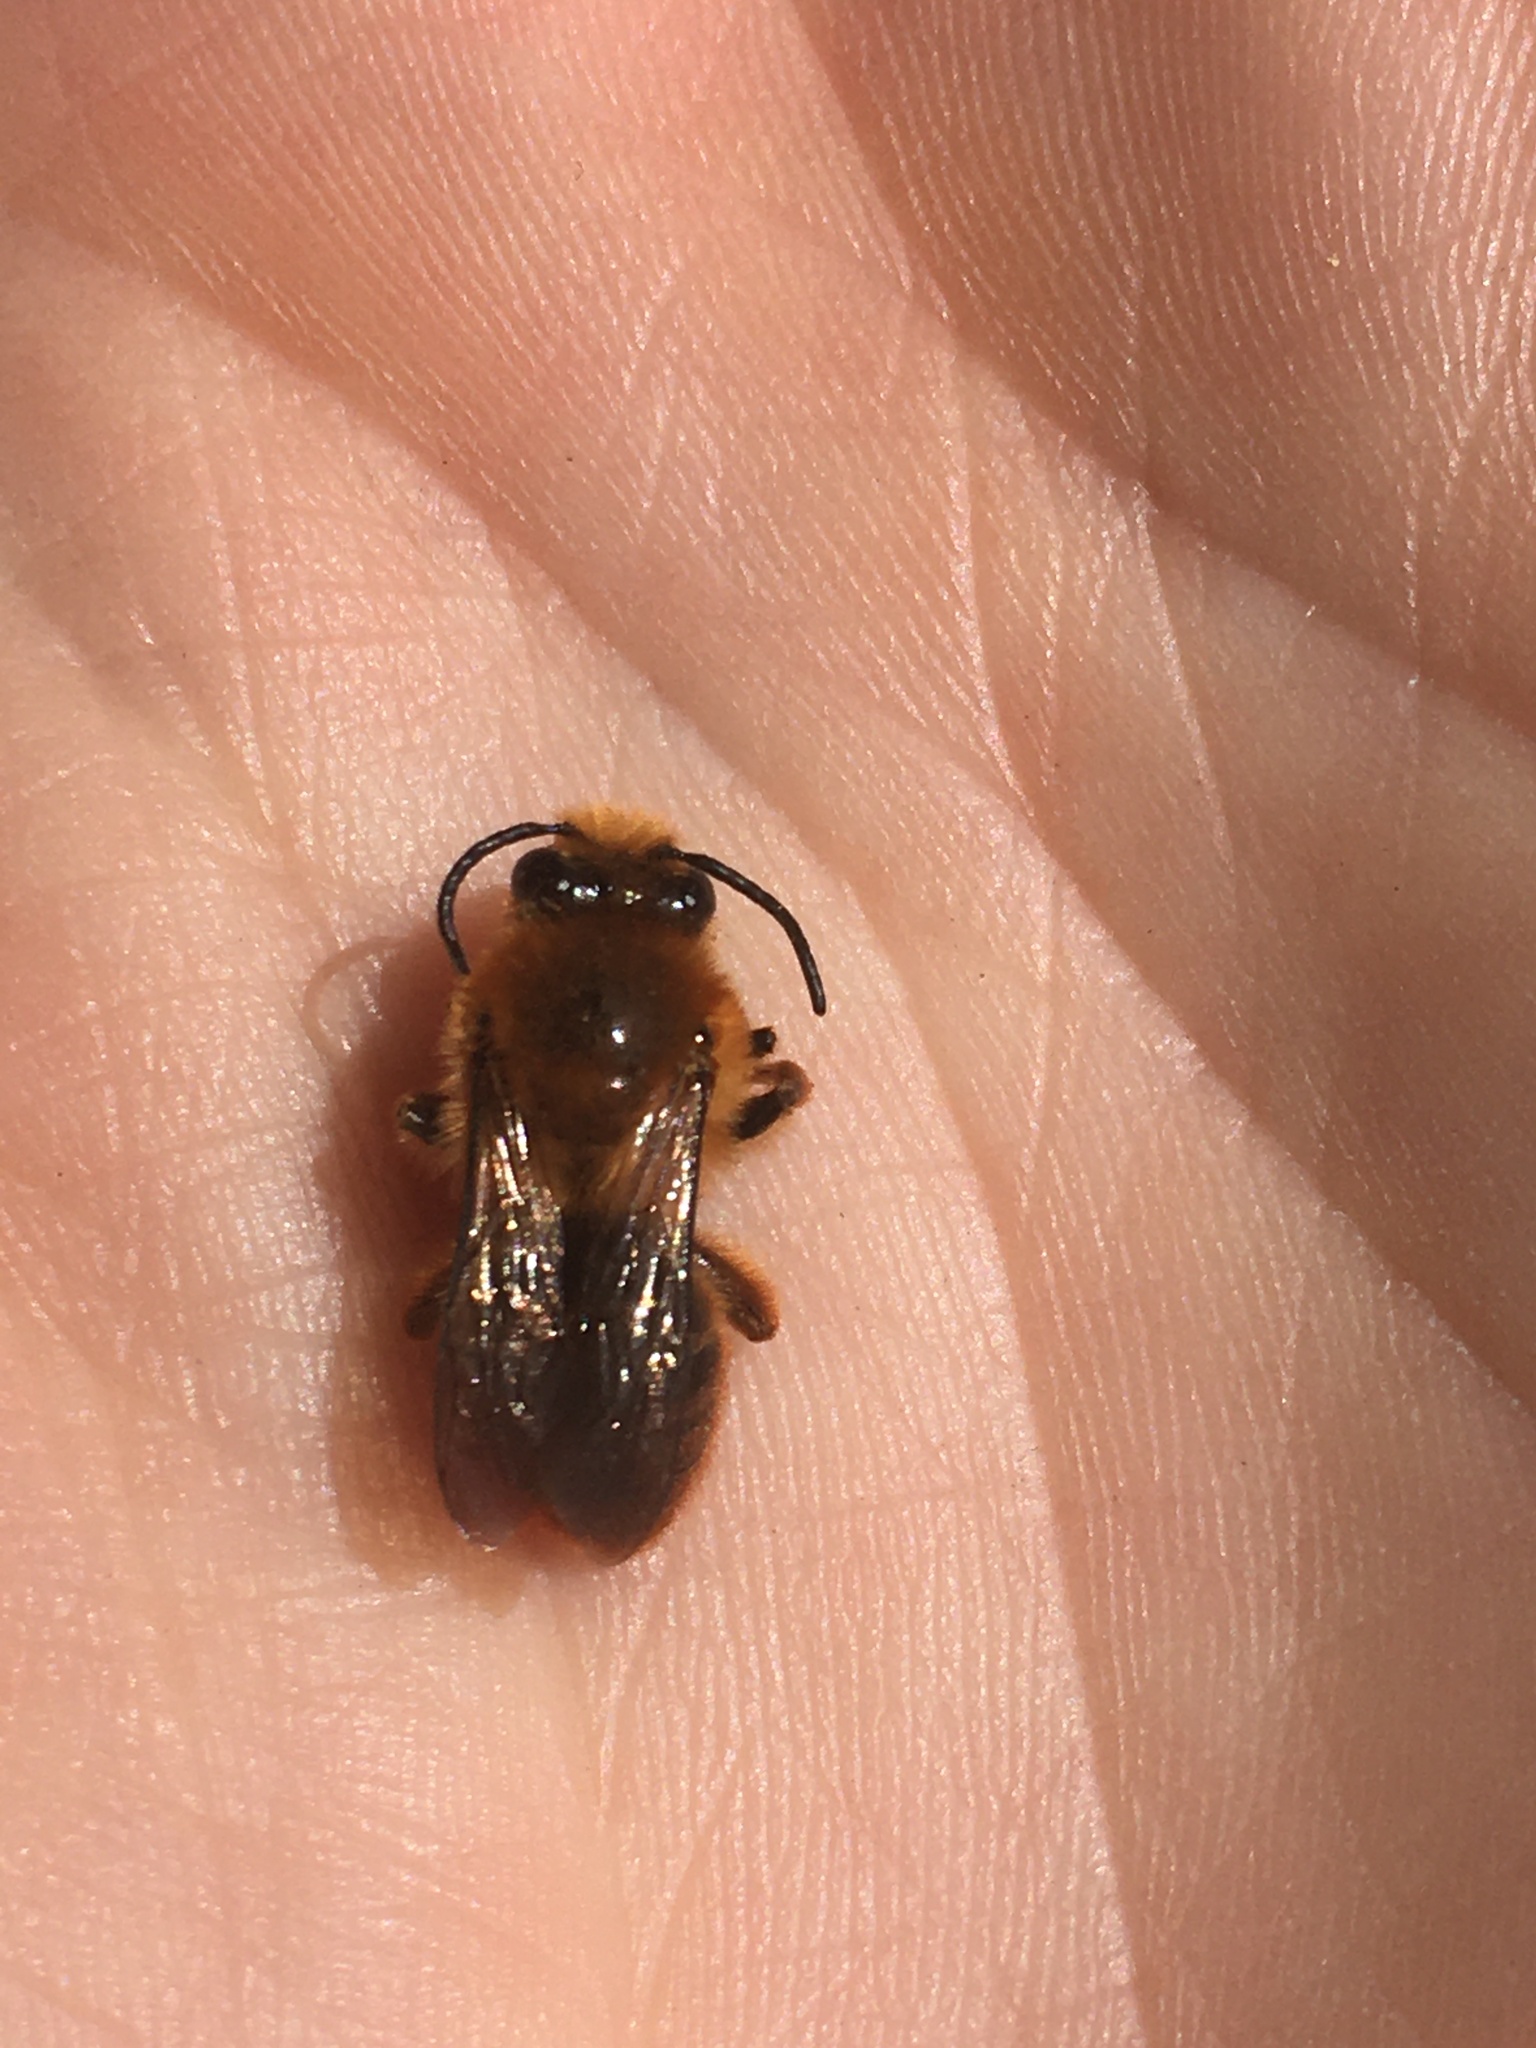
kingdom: Animalia
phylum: Arthropoda
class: Insecta
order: Hymenoptera
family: Colletidae
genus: Cadeguala
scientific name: Cadeguala occidentalis
